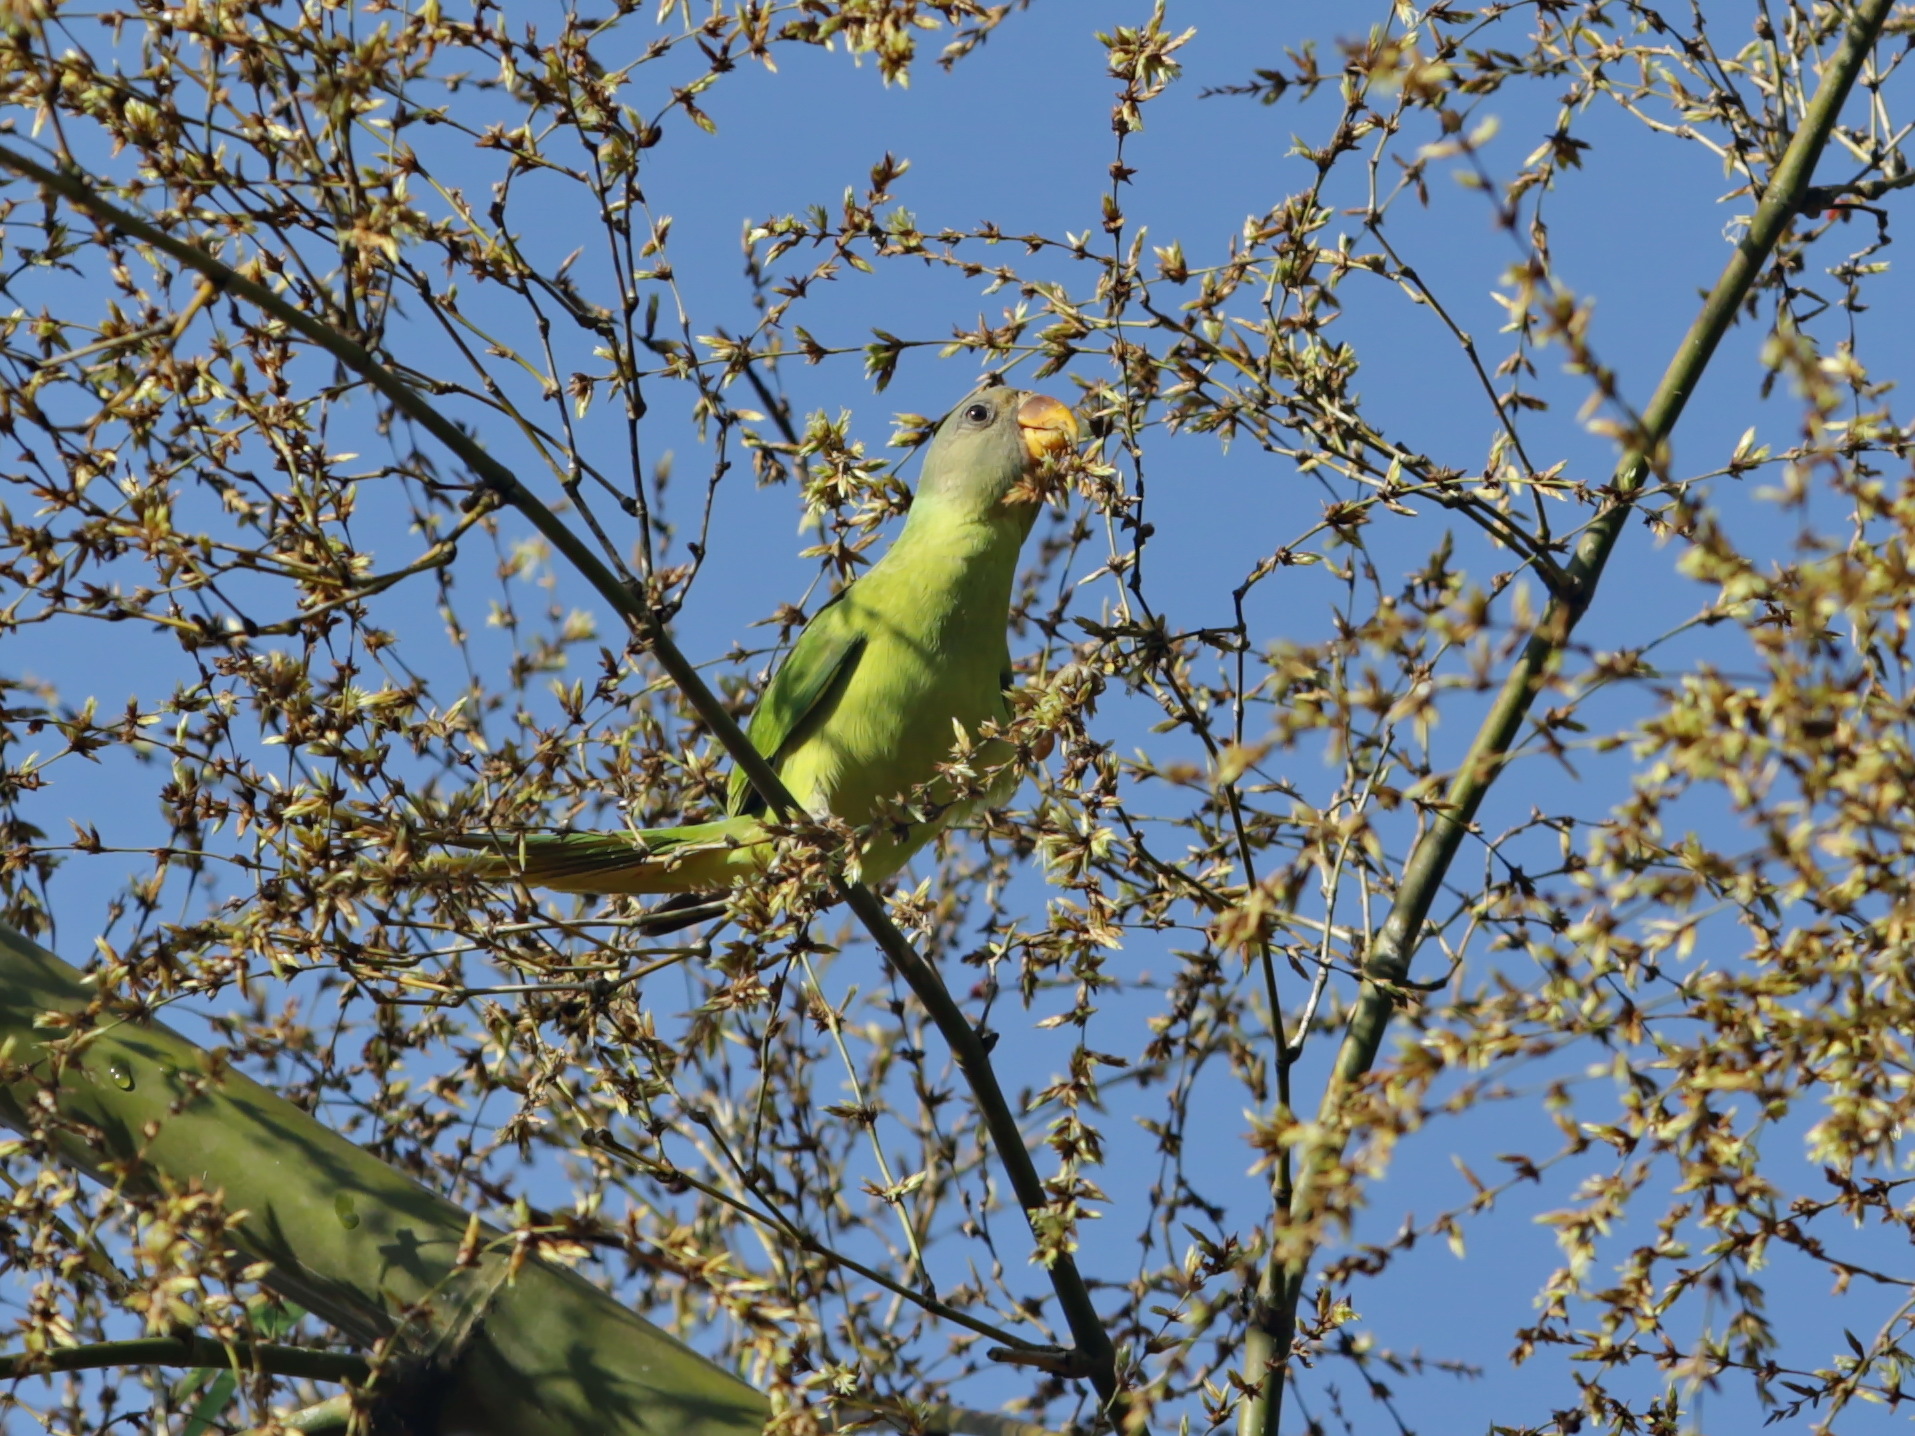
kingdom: Animalia
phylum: Chordata
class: Aves
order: Psittaciformes
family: Psittacidae
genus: Psittacula
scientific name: Psittacula finschii
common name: Grey-headed parakeet
